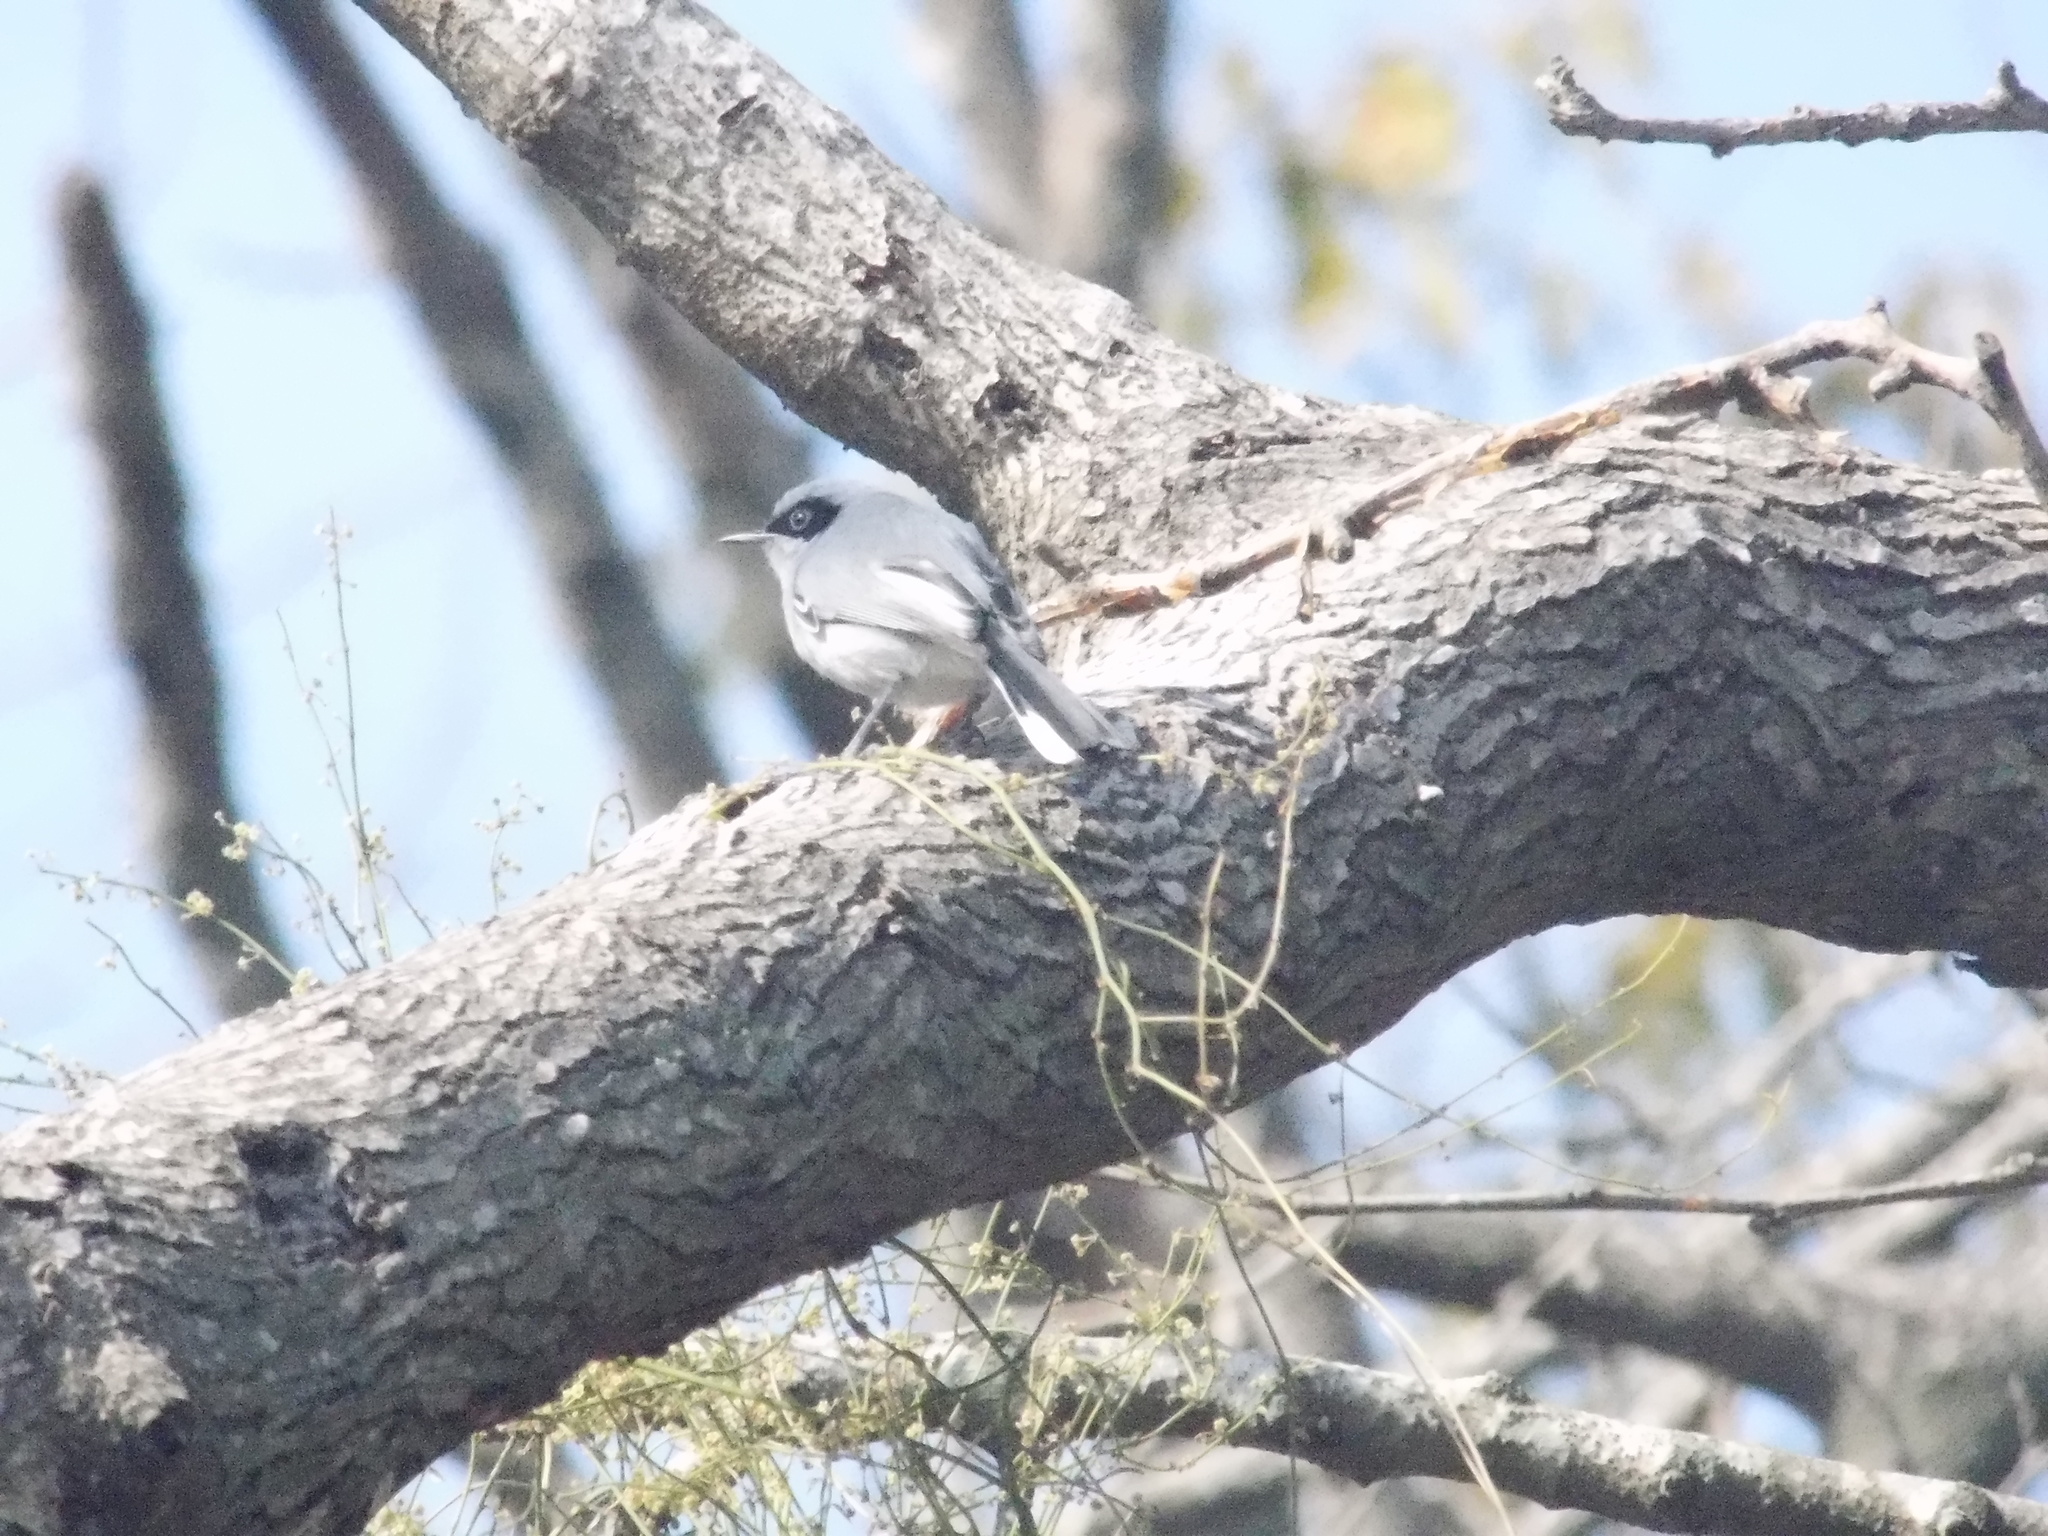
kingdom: Animalia
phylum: Chordata
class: Aves
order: Passeriformes
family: Polioptilidae
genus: Polioptila
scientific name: Polioptila dumicola
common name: Masked gnatcatcher
